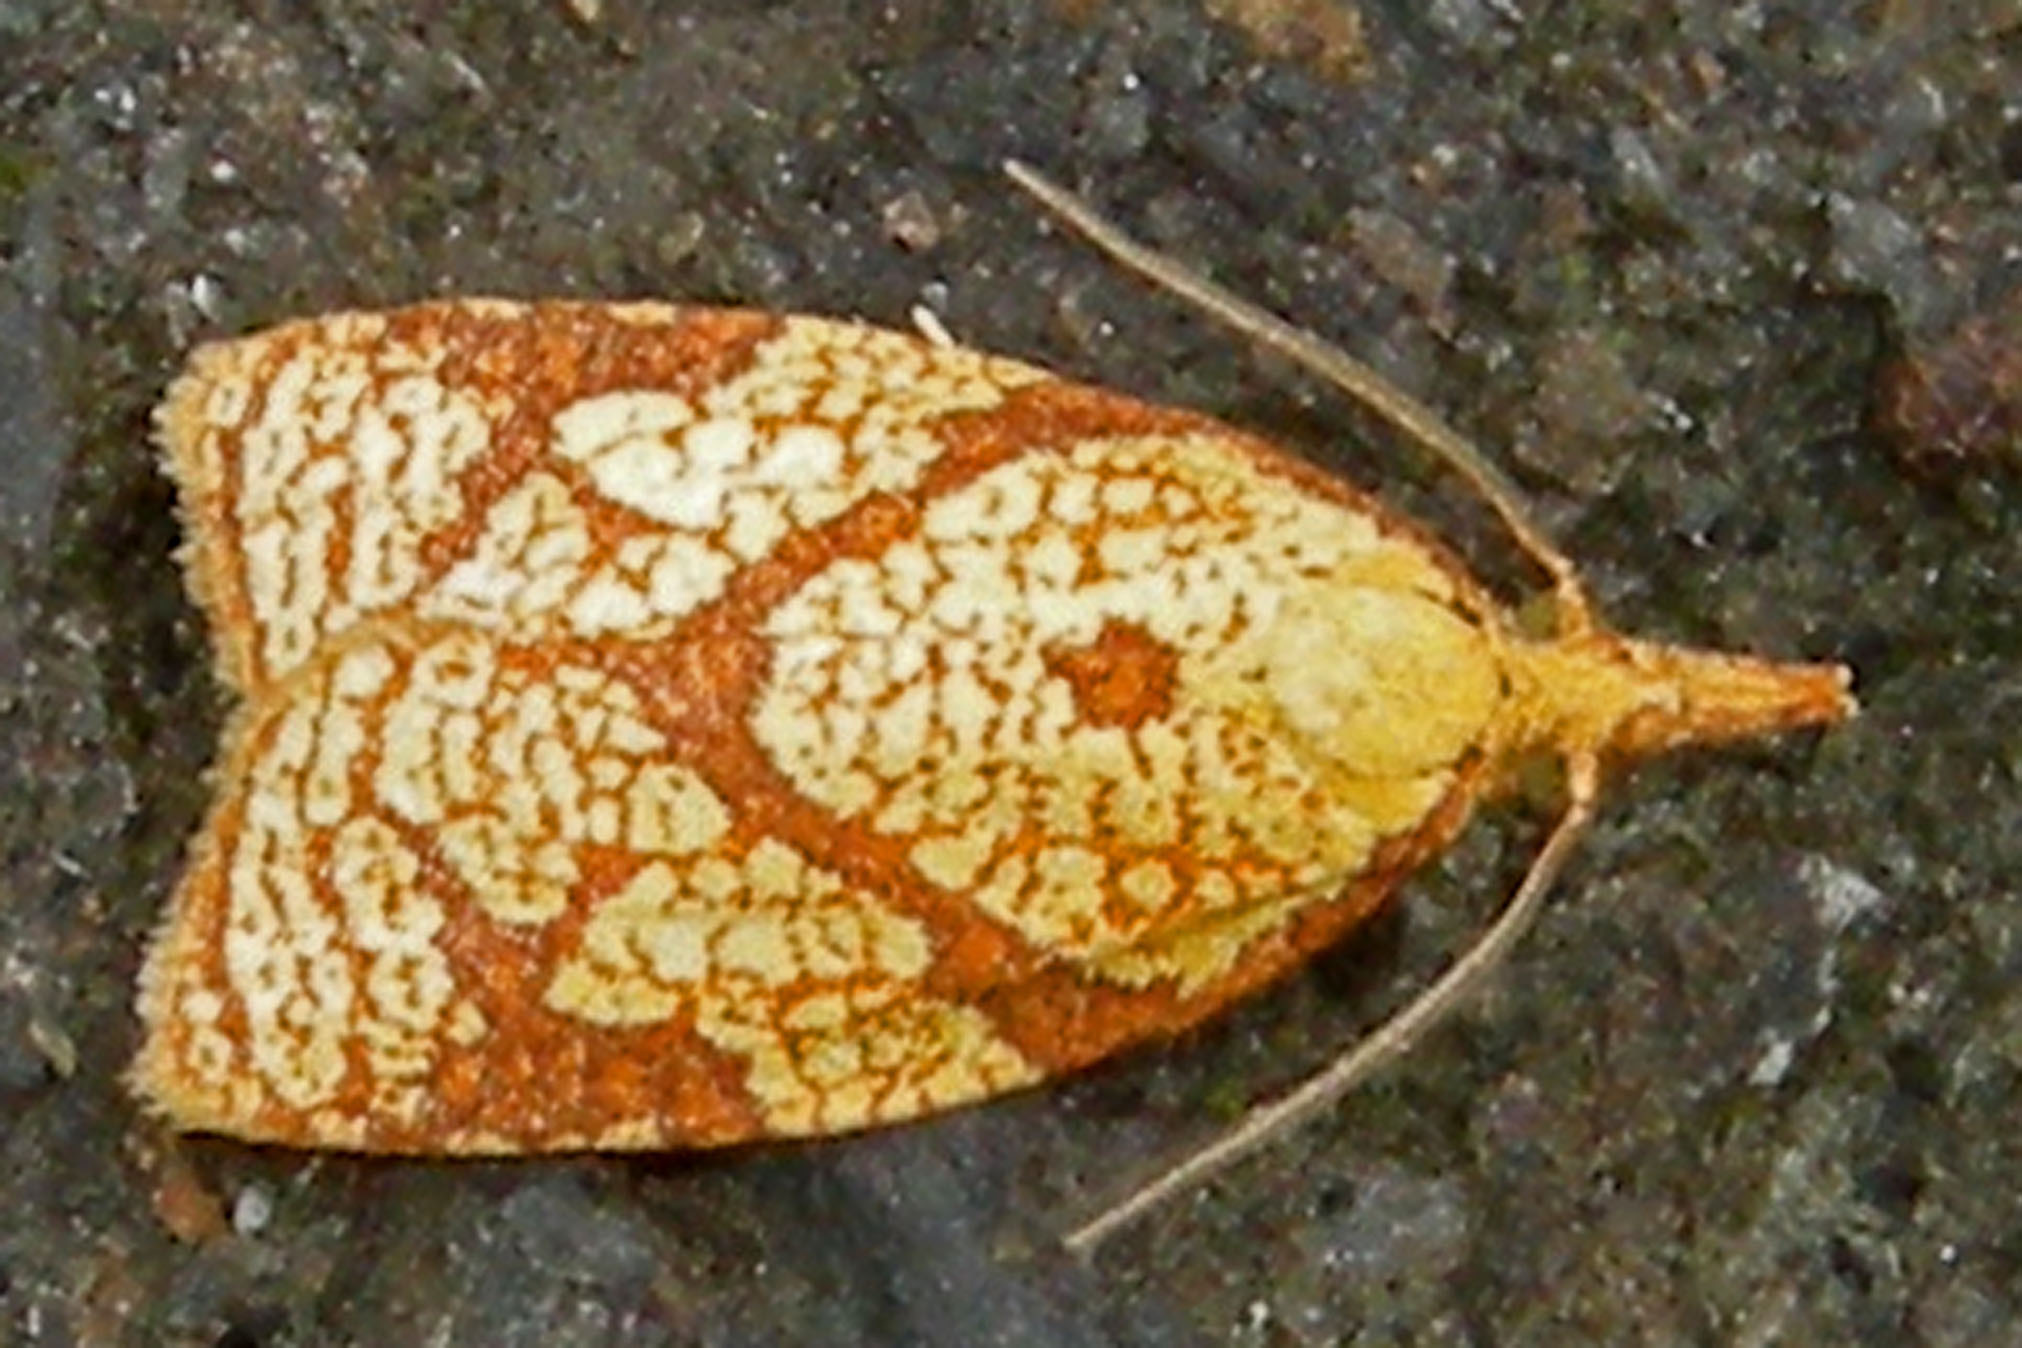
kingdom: Animalia
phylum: Arthropoda
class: Insecta
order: Lepidoptera
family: Tortricidae
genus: Cenopis
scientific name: Cenopis reticulatana
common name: Reticulated fruitworm moth
